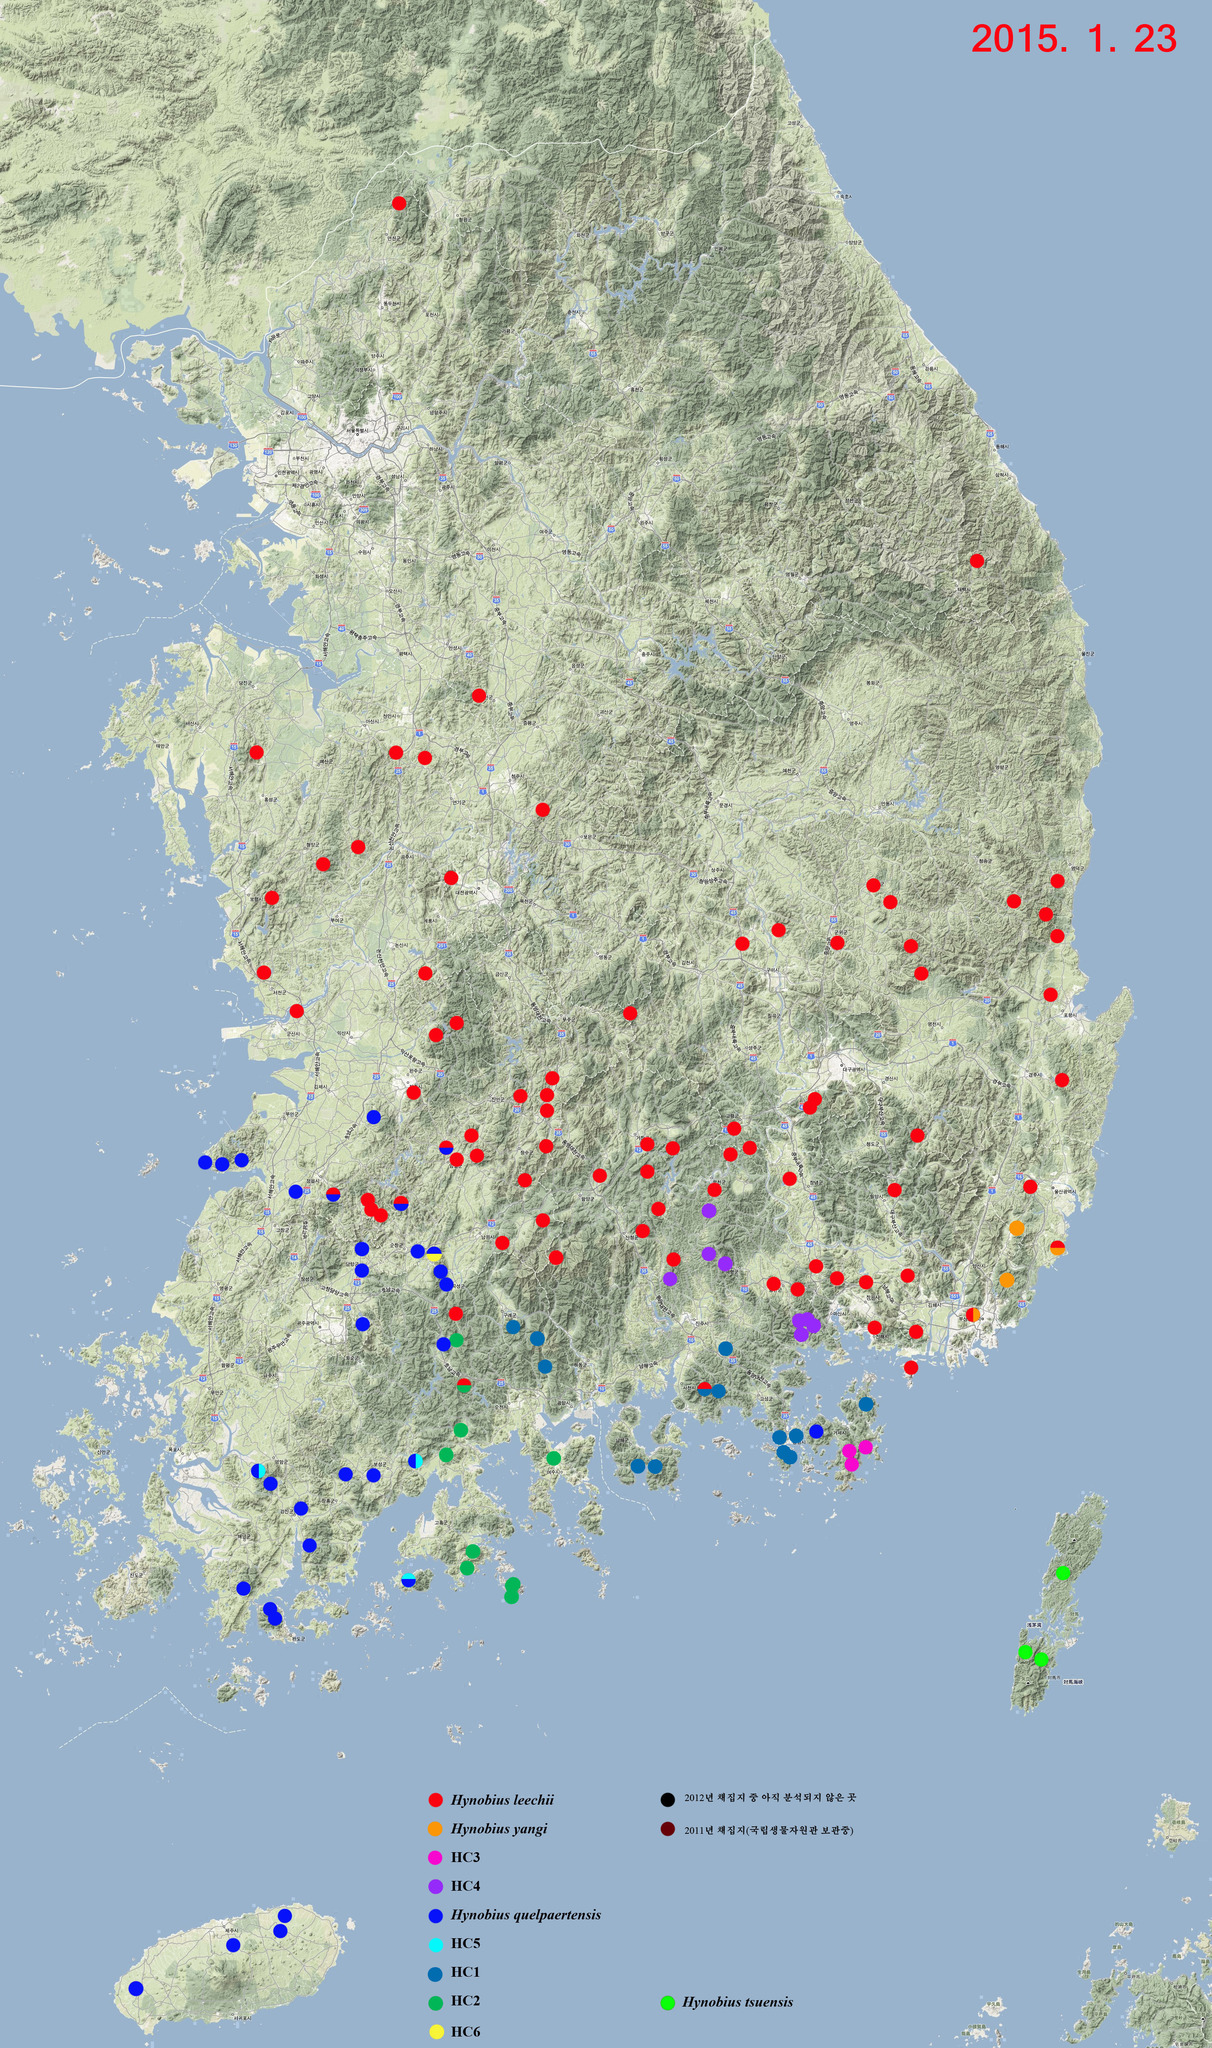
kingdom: Animalia
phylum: Chordata
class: Amphibia
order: Caudata
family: Hynobiidae
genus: Hynobius
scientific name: Hynobius quelpaertensis
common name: Cheju salamander
